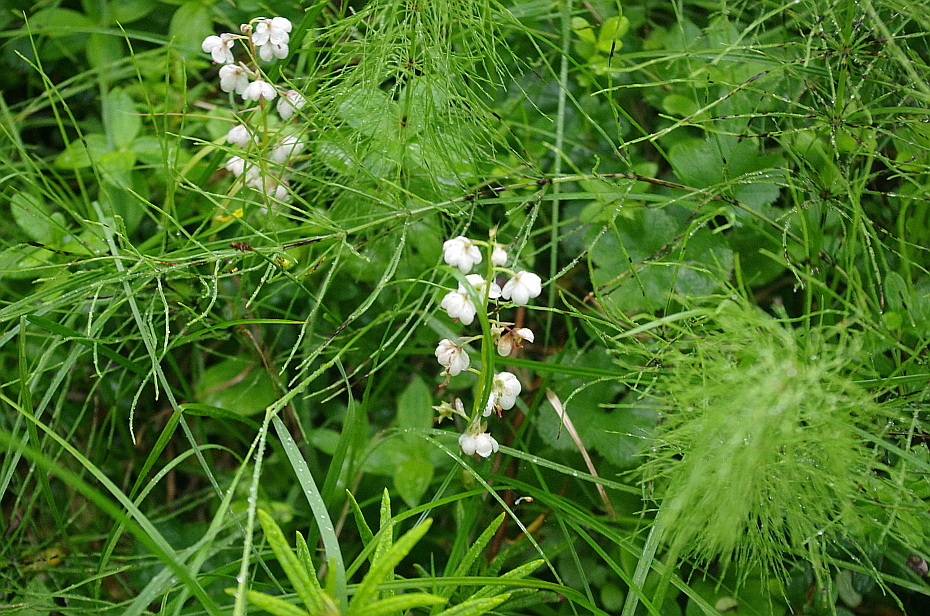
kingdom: Plantae
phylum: Tracheophyta
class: Magnoliopsida
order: Ericales
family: Ericaceae
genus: Pyrola
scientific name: Pyrola rotundifolia
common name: Round-leaved wintergreen
